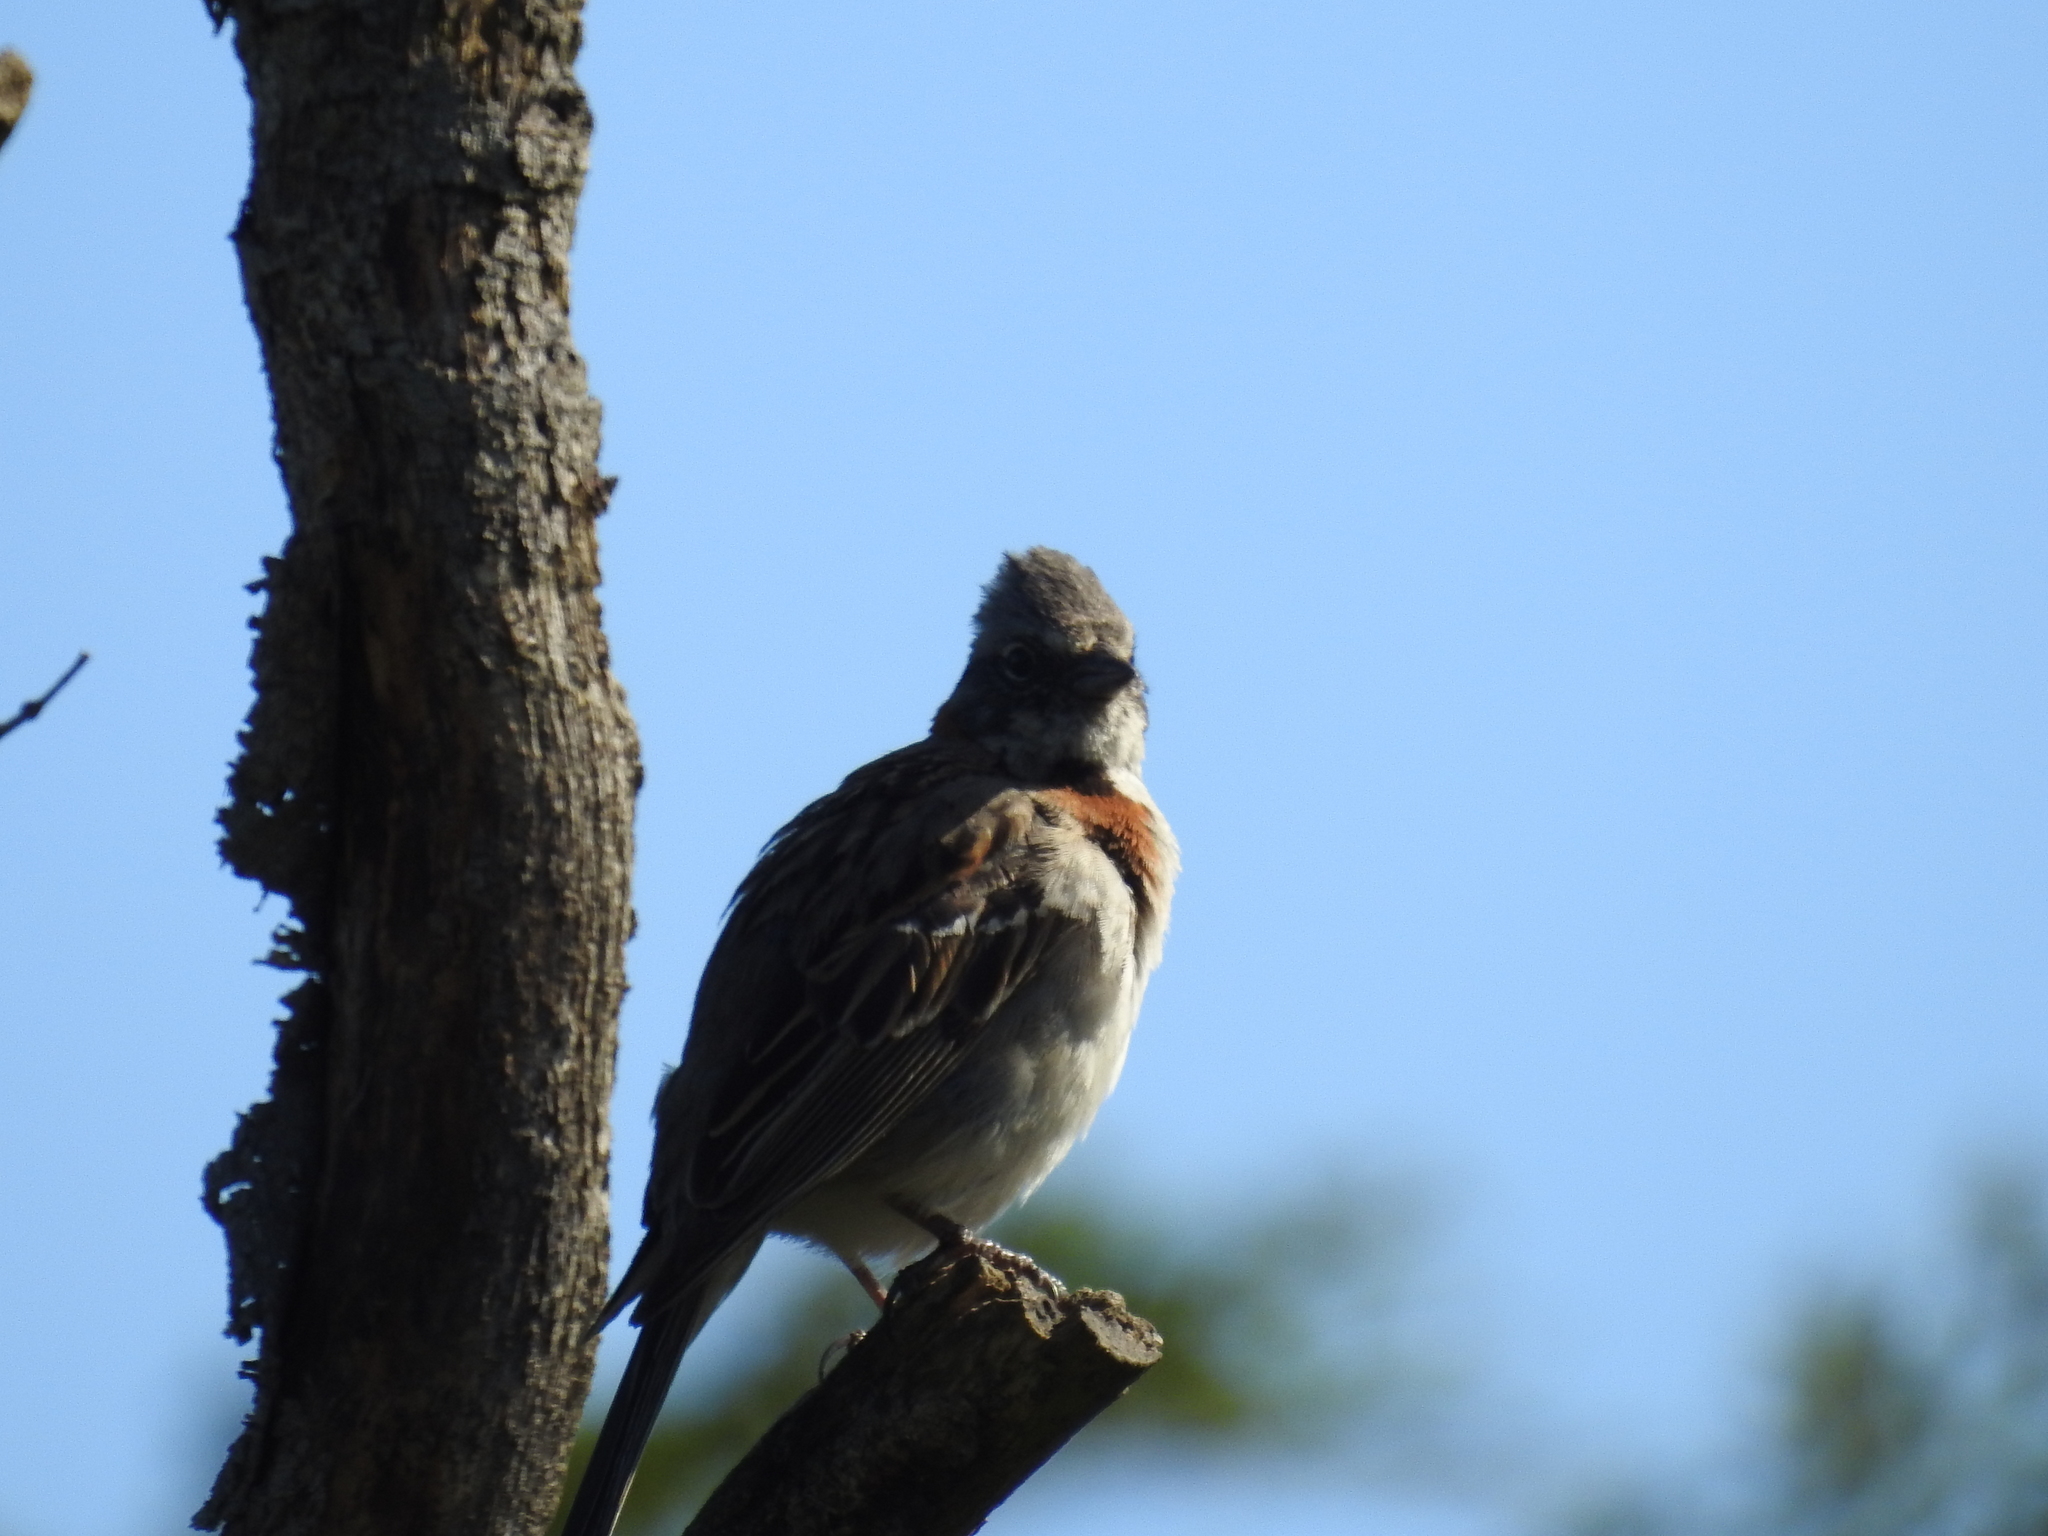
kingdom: Animalia
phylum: Chordata
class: Aves
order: Passeriformes
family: Passerellidae
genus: Zonotrichia
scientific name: Zonotrichia capensis
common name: Rufous-collared sparrow
